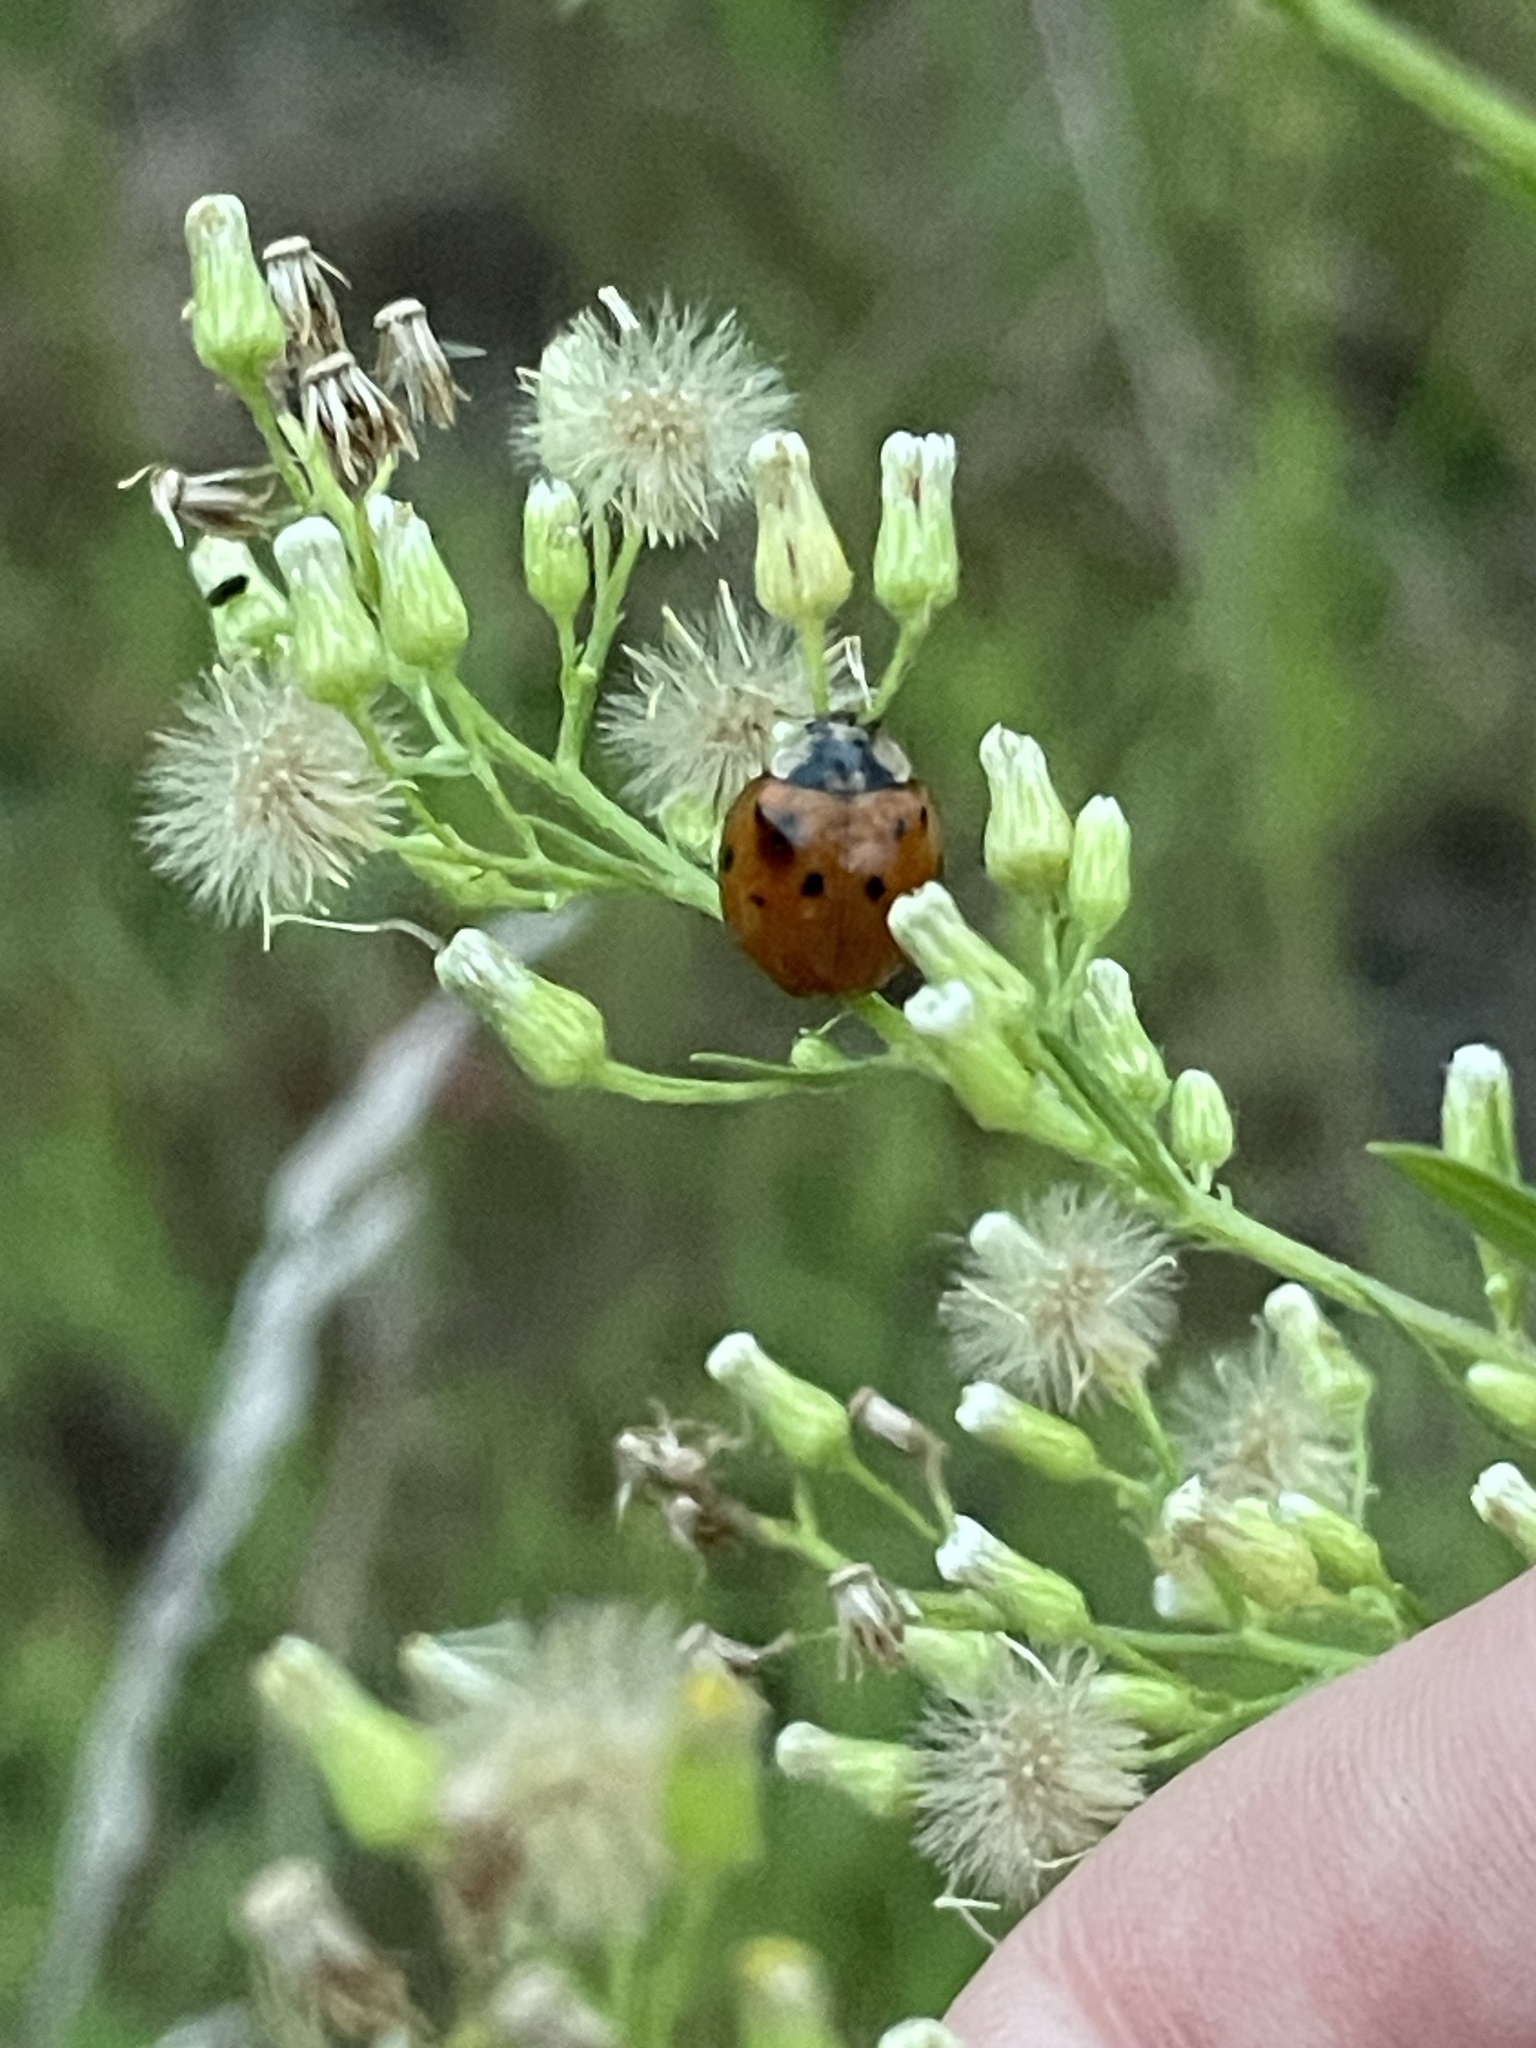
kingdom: Animalia
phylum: Arthropoda
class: Insecta
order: Coleoptera
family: Coccinellidae
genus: Harmonia
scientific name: Harmonia axyridis
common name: Harlequin ladybird
